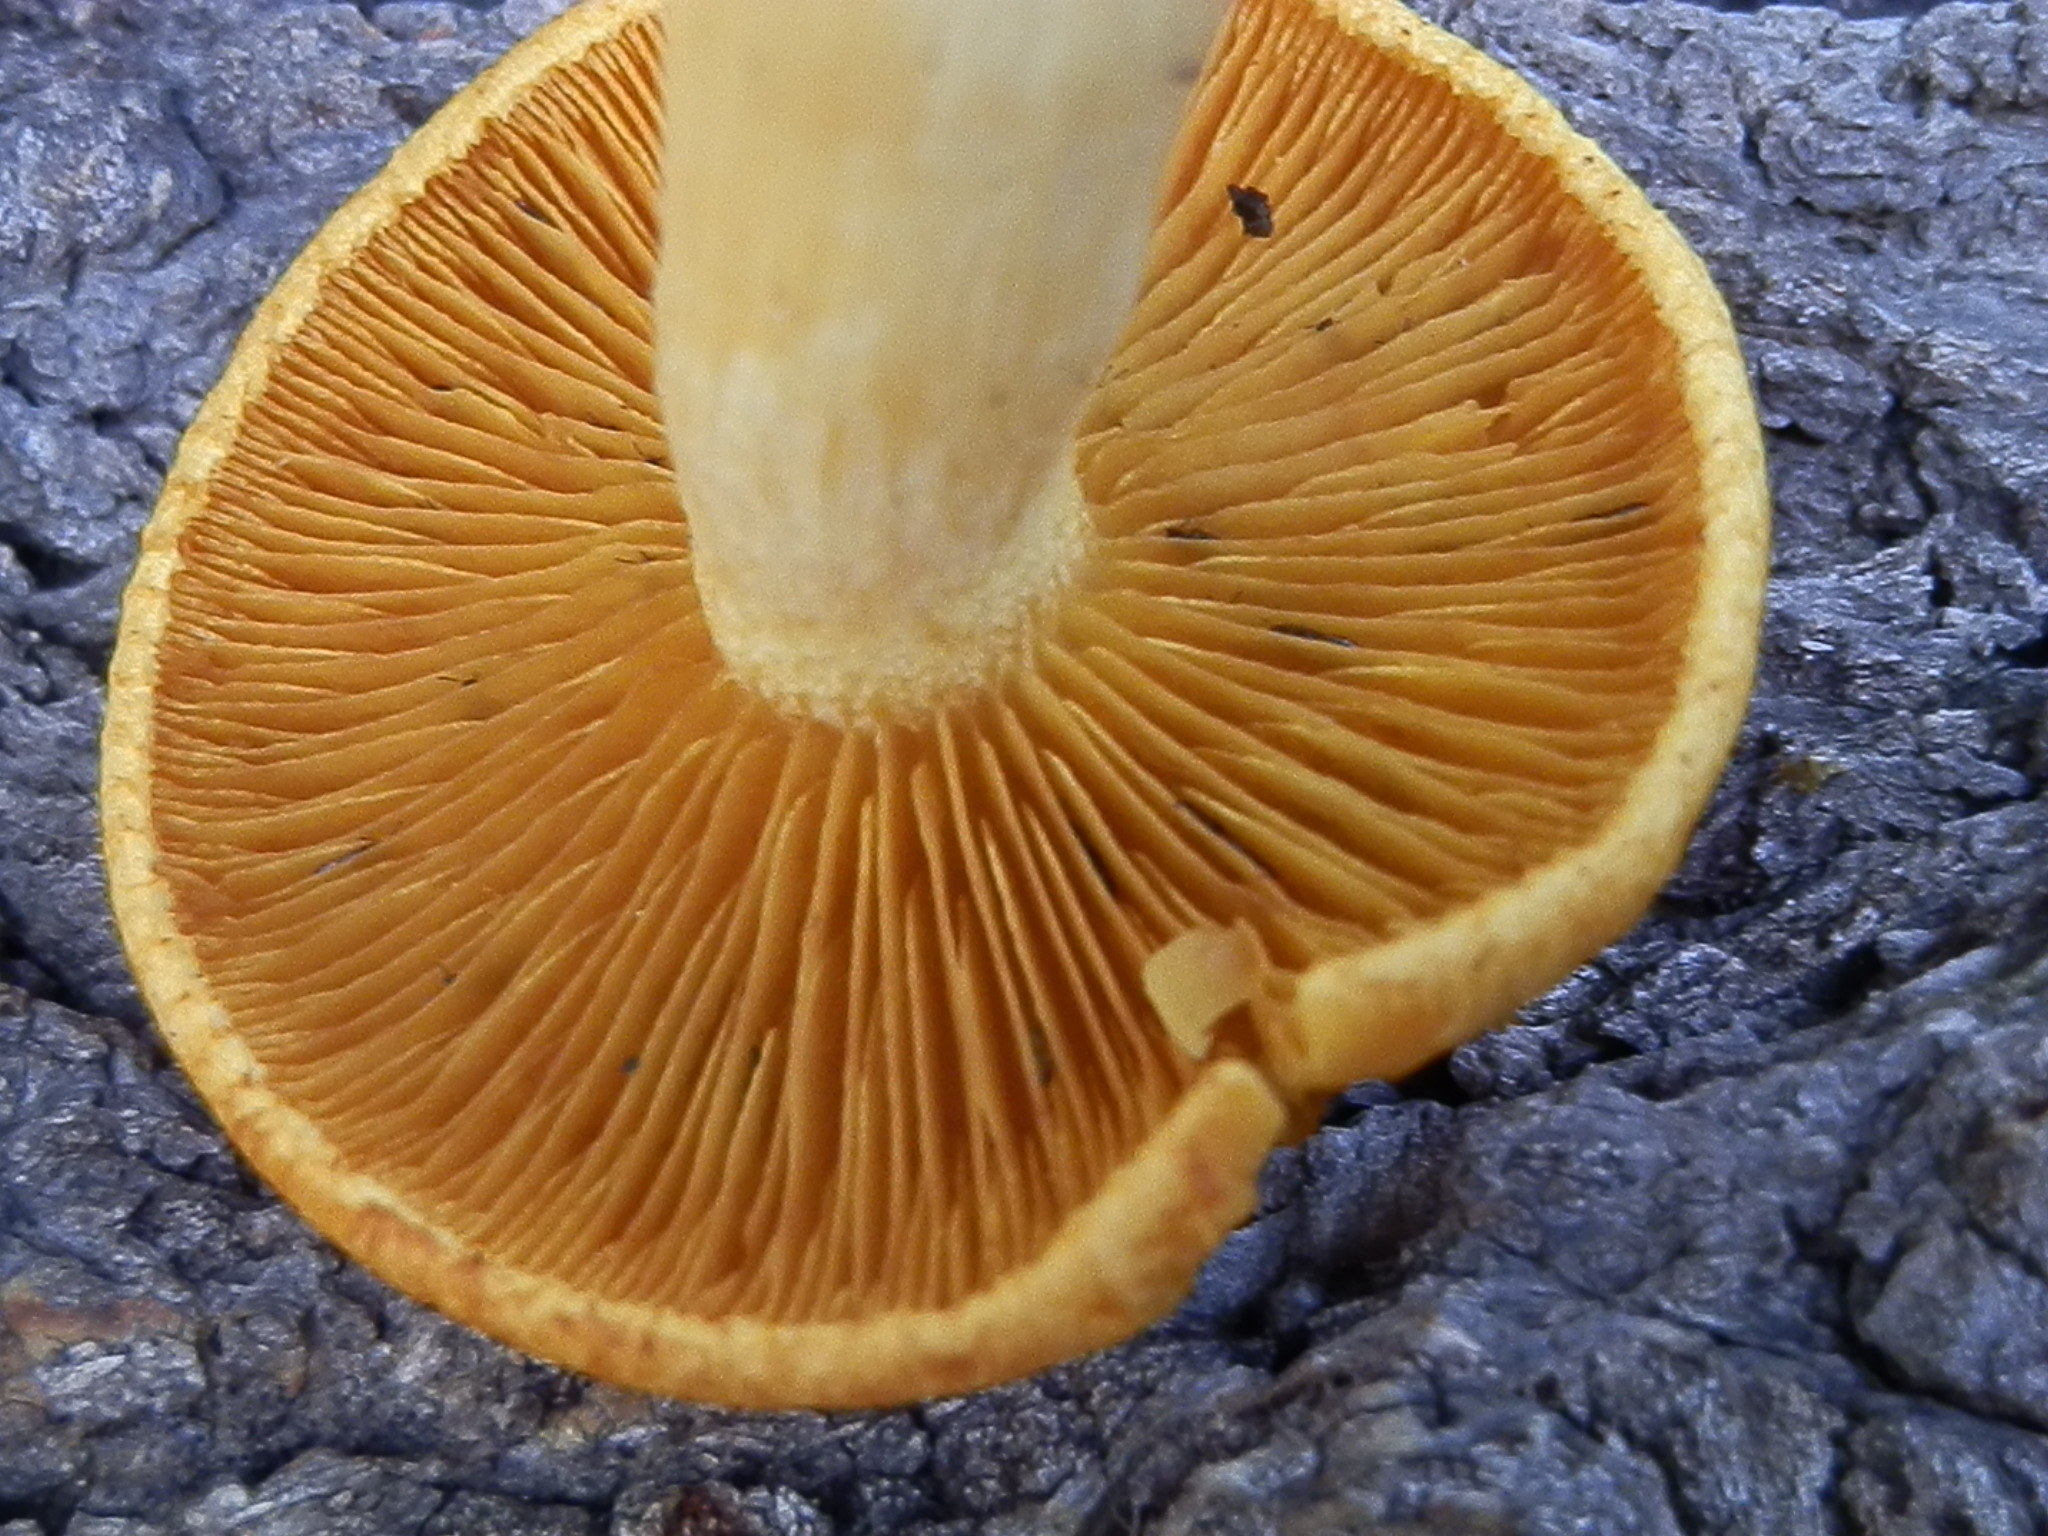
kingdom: Fungi
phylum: Basidiomycota
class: Agaricomycetes
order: Agaricales
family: Tricholomataceae
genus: Tricholomopsis
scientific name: Tricholomopsis sulfureoides
